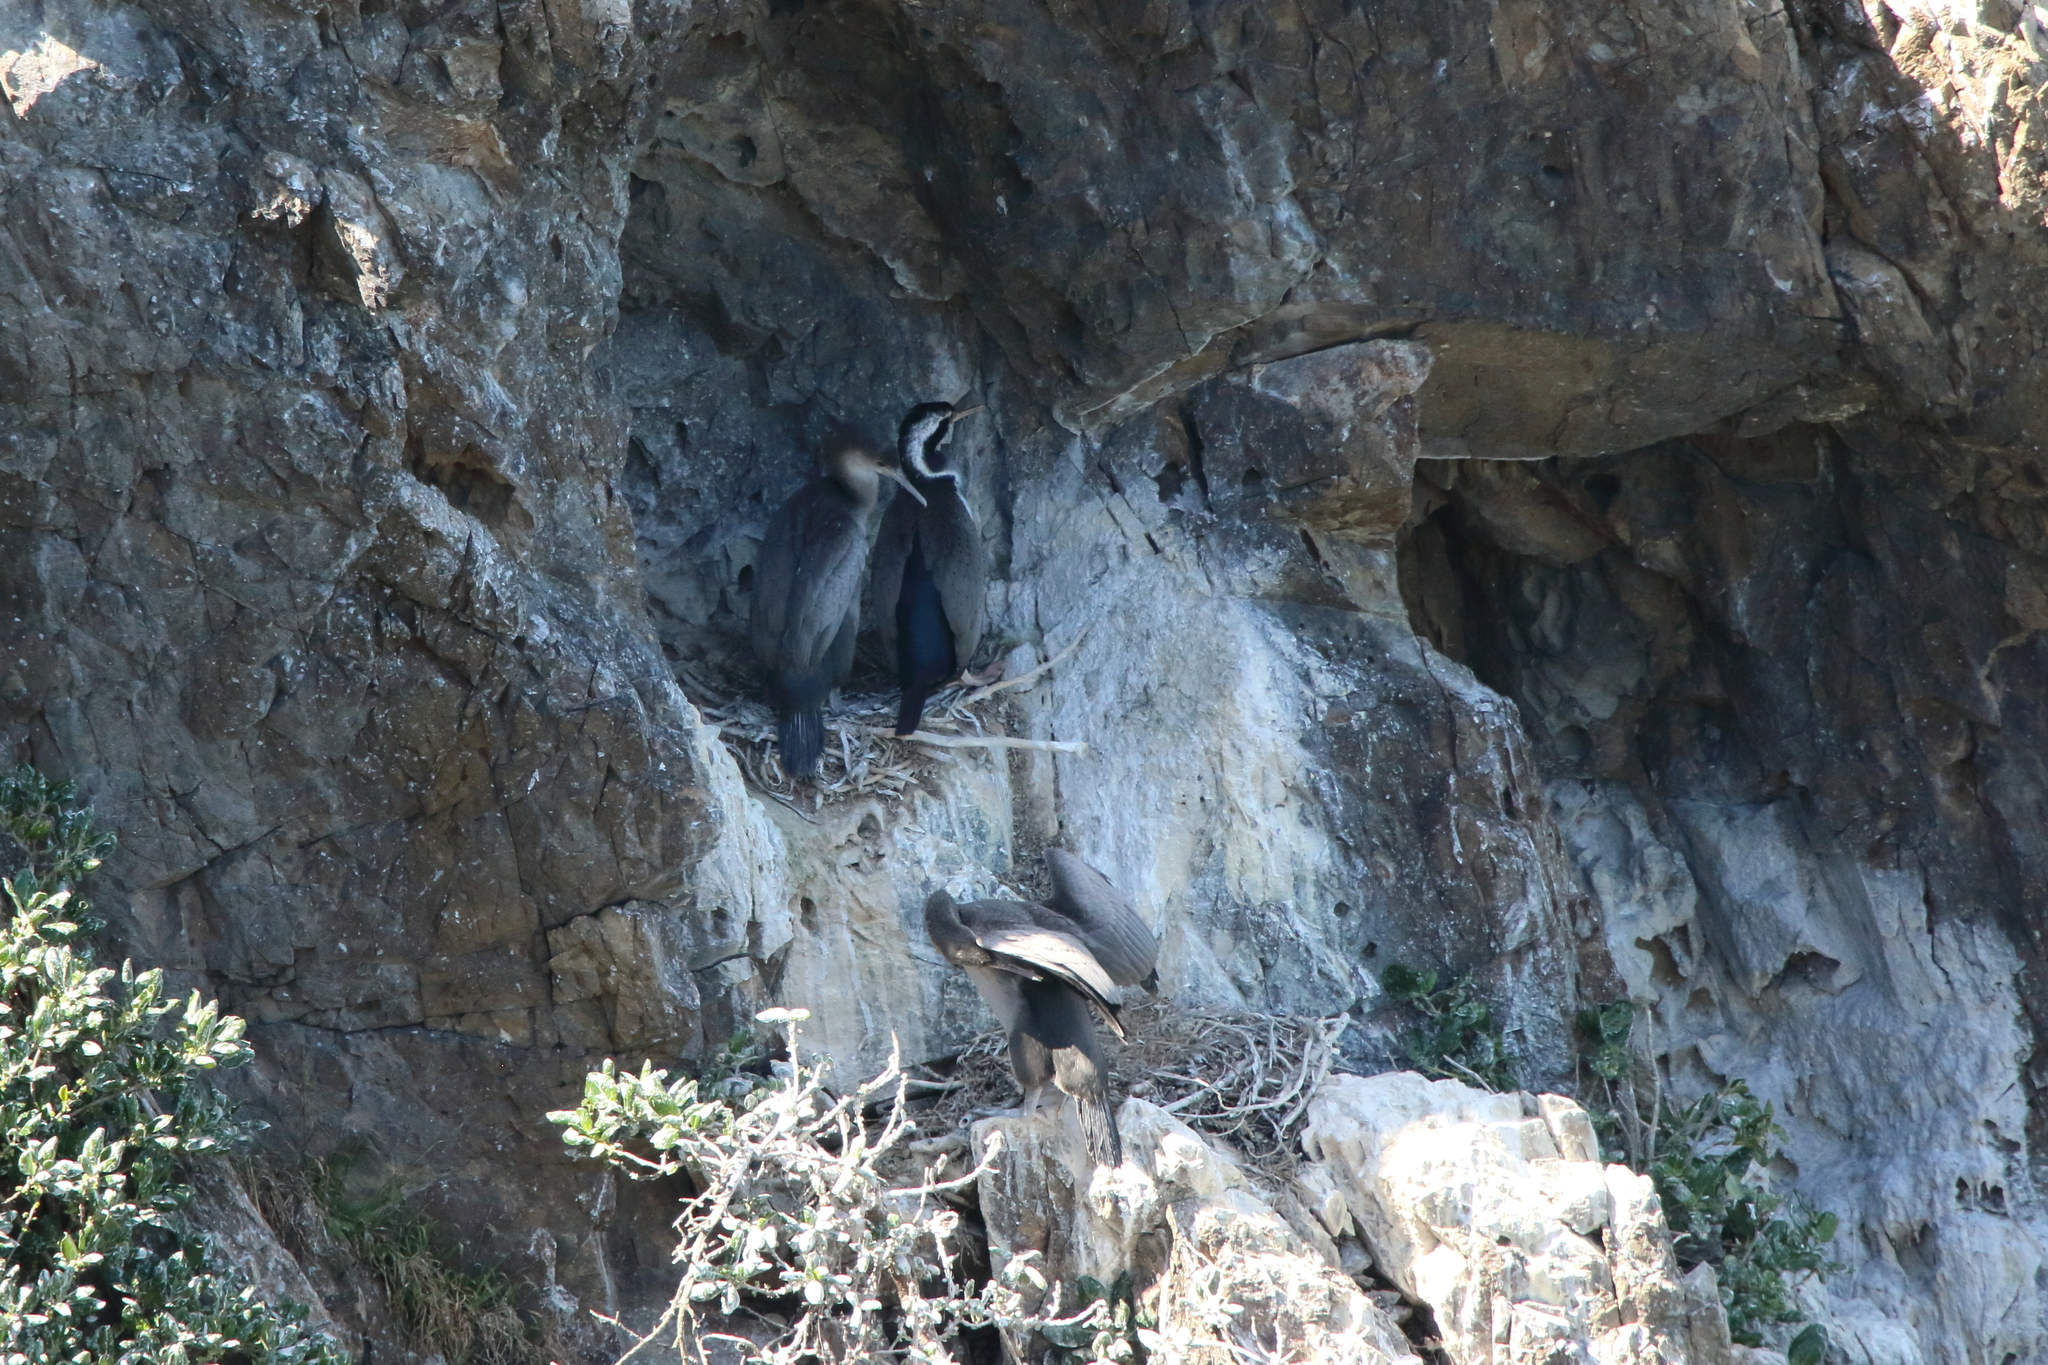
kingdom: Animalia
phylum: Chordata
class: Aves
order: Suliformes
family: Phalacrocoracidae
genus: Phalacrocorax
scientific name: Phalacrocorax punctatus
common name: Spotted shag
